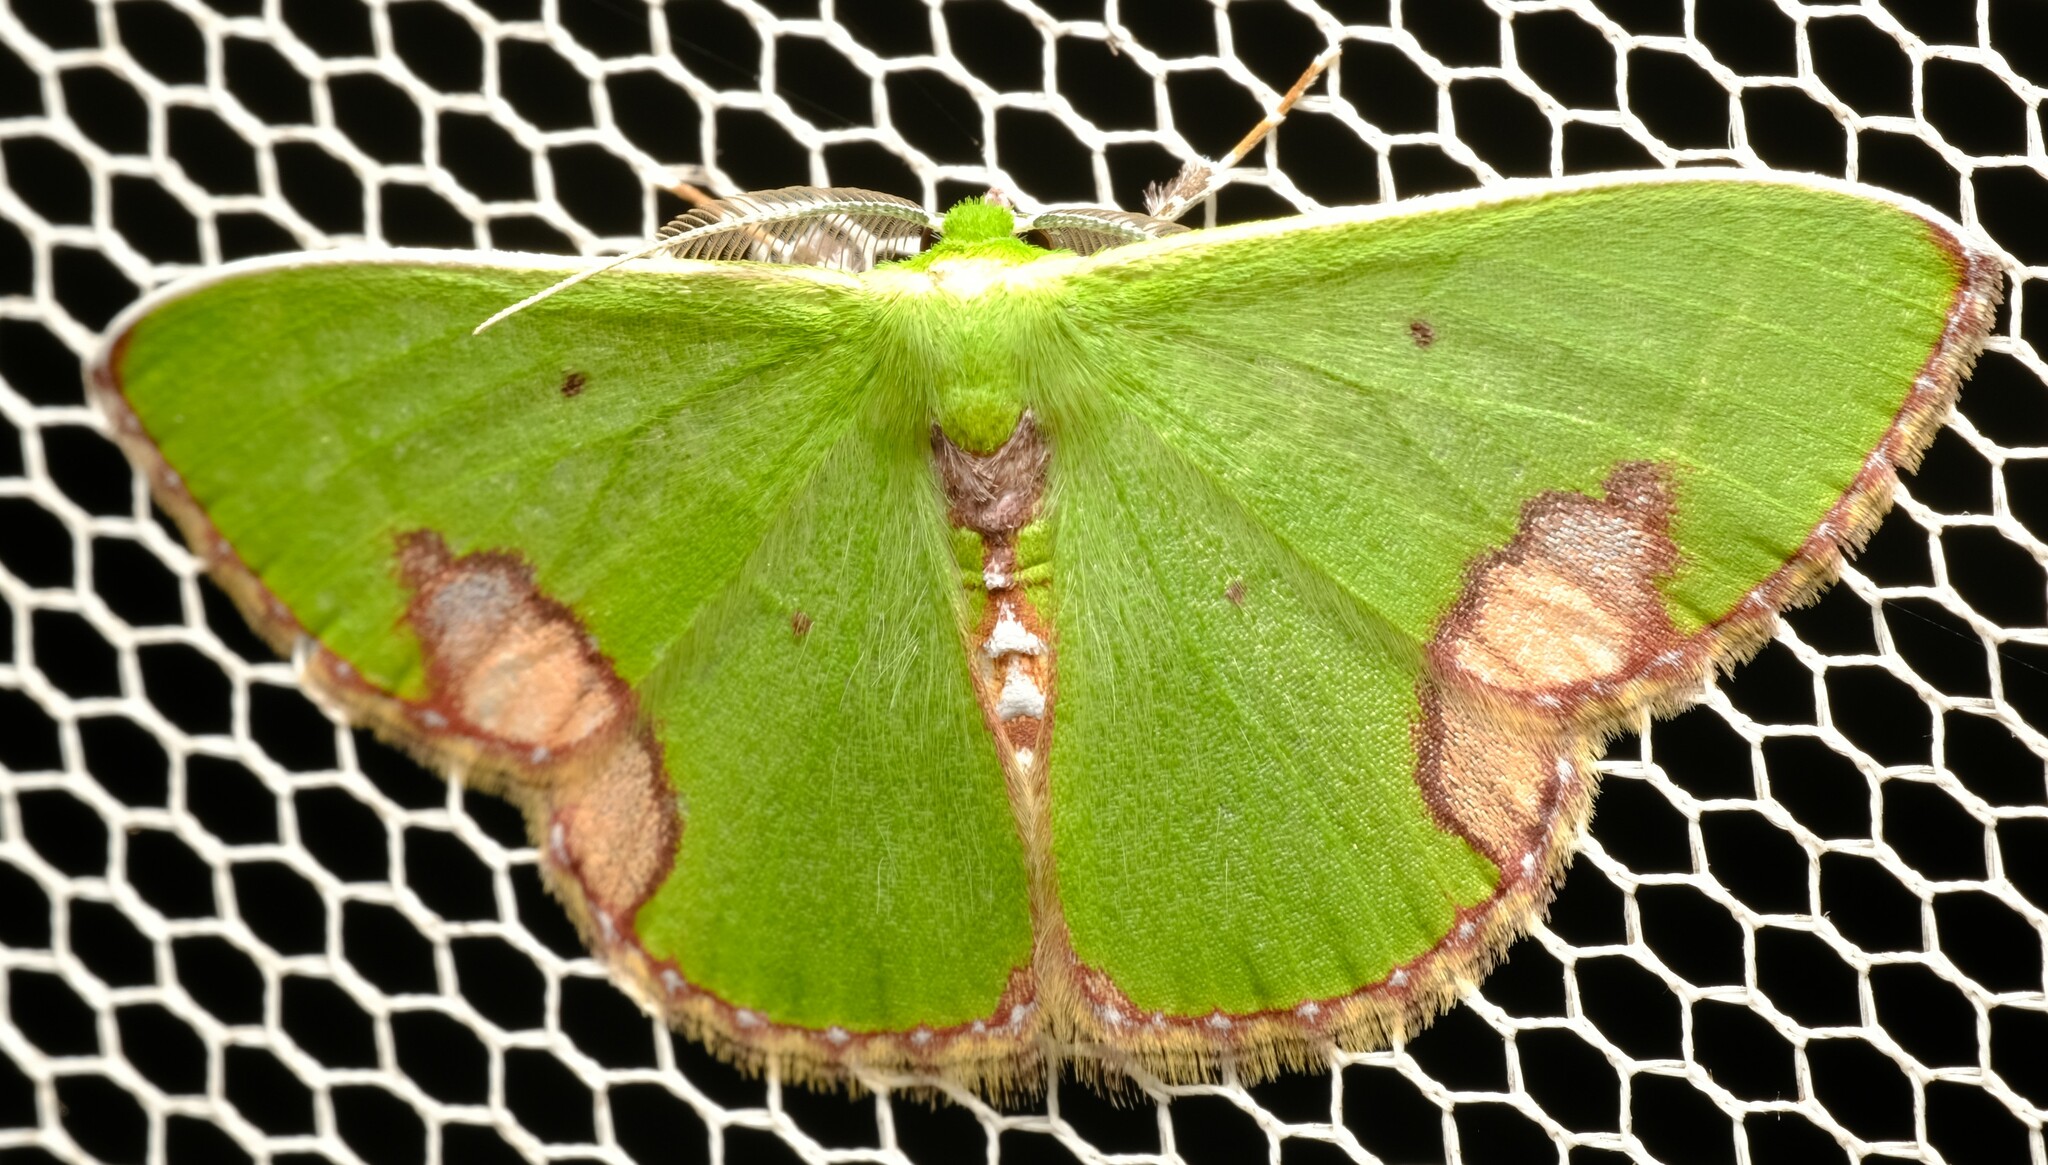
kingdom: Animalia
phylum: Arthropoda
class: Insecta
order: Lepidoptera
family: Geometridae
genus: Comibaena
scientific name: Comibaena mariae
